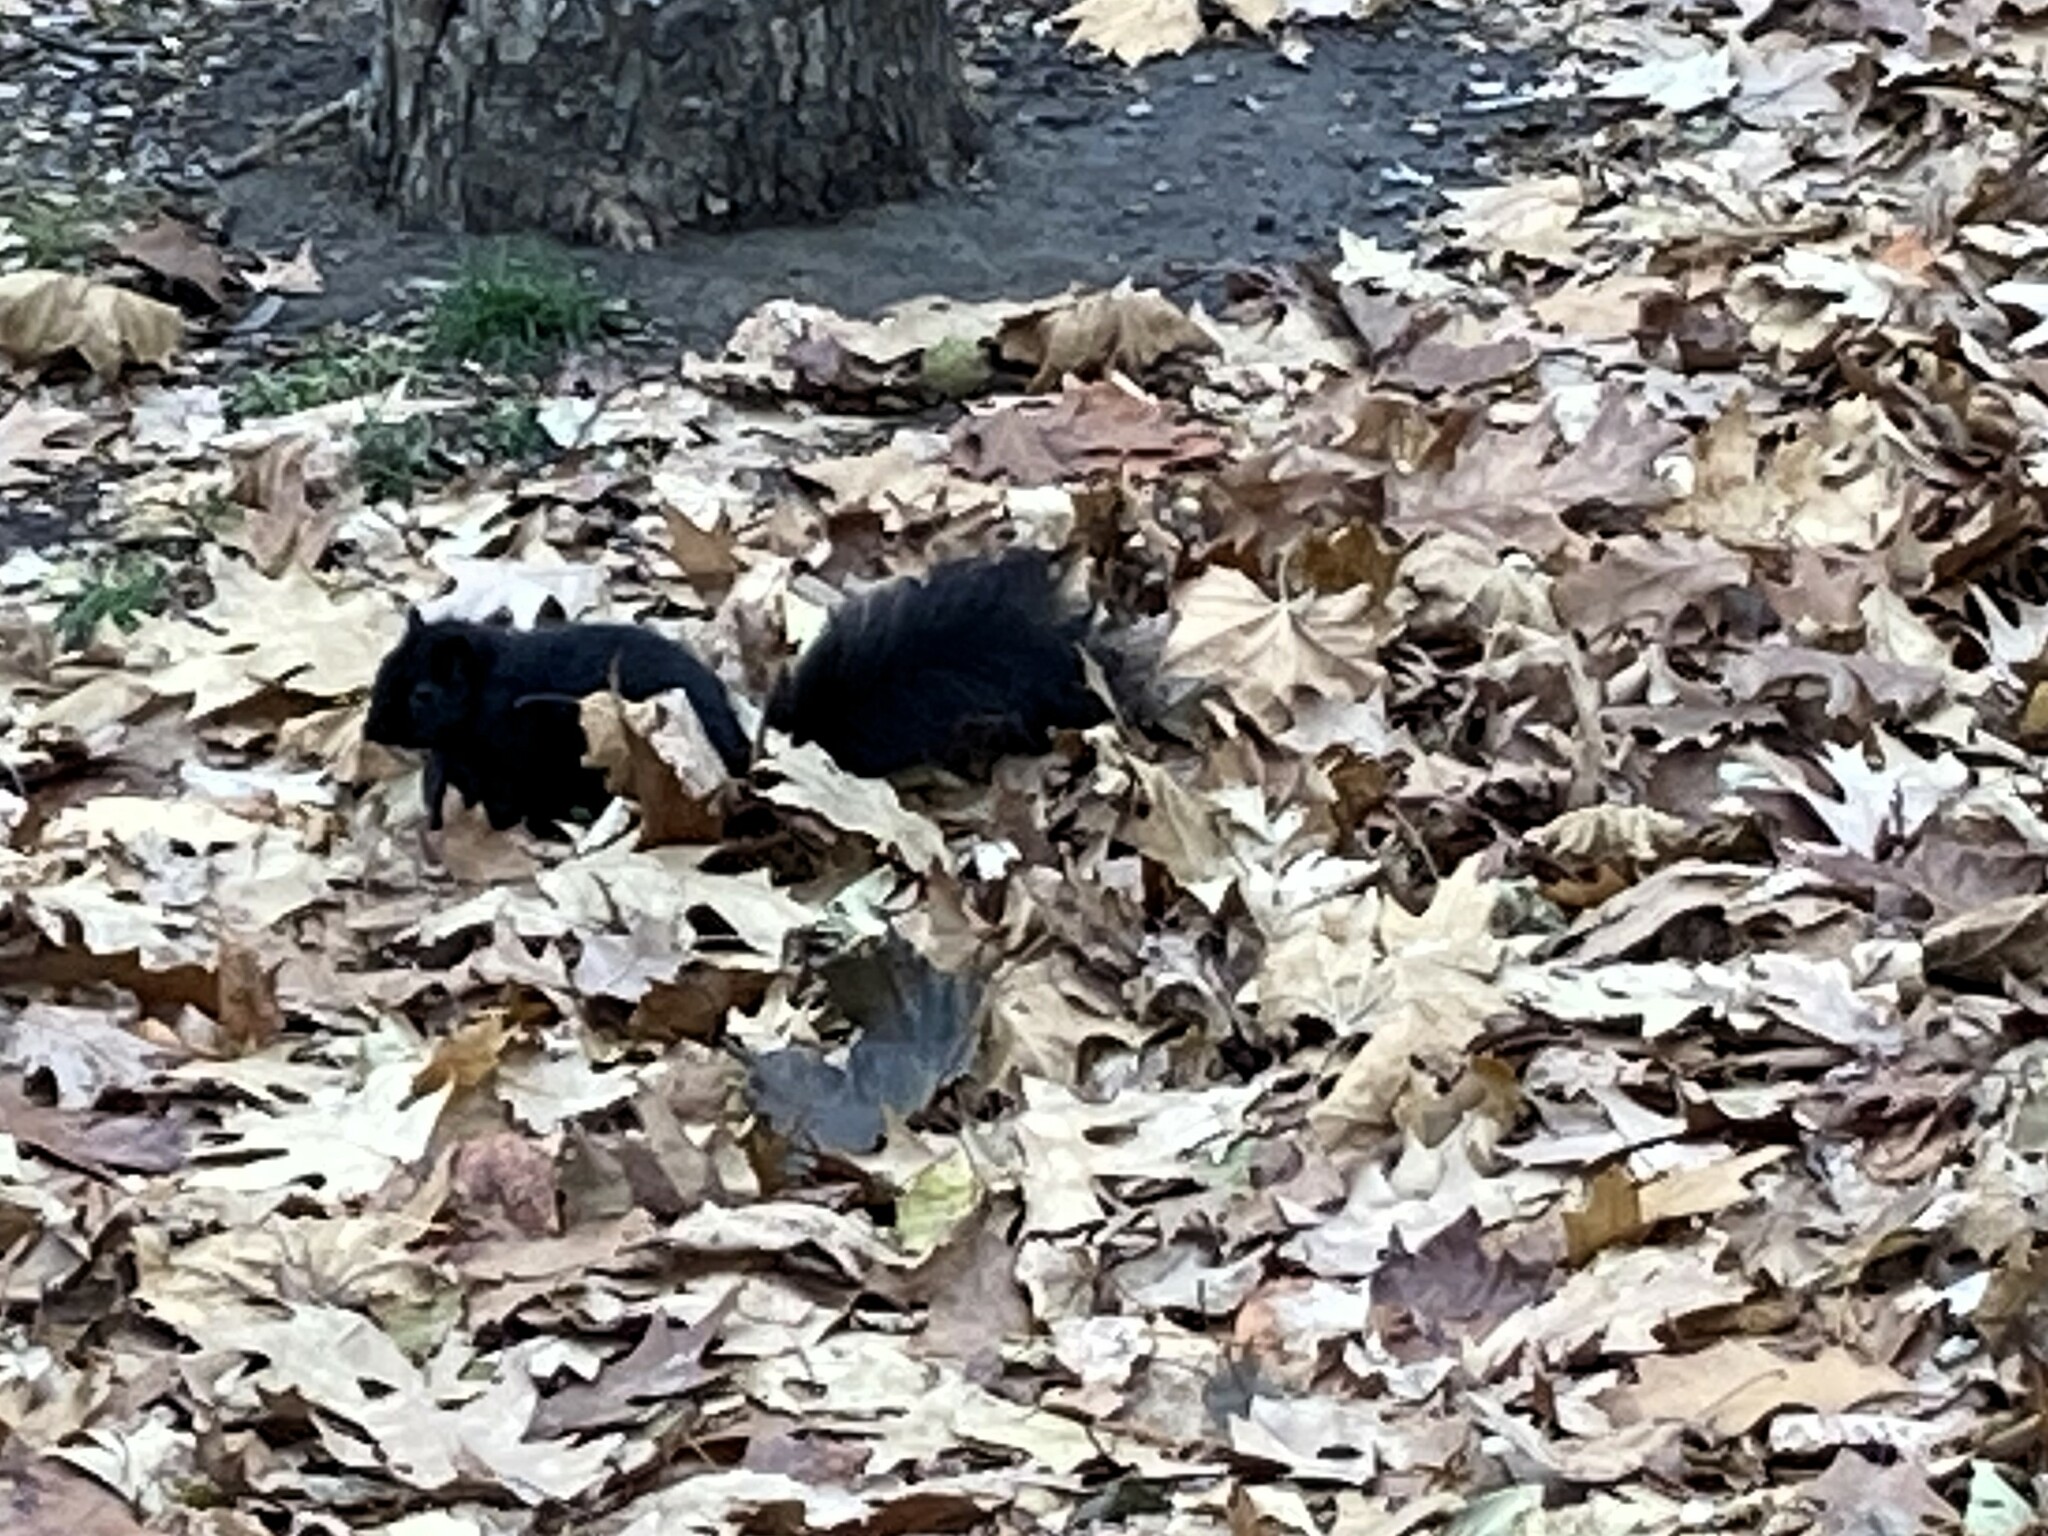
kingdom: Animalia
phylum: Chordata
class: Mammalia
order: Rodentia
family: Sciuridae
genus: Sciurus
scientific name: Sciurus carolinensis
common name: Eastern gray squirrel
